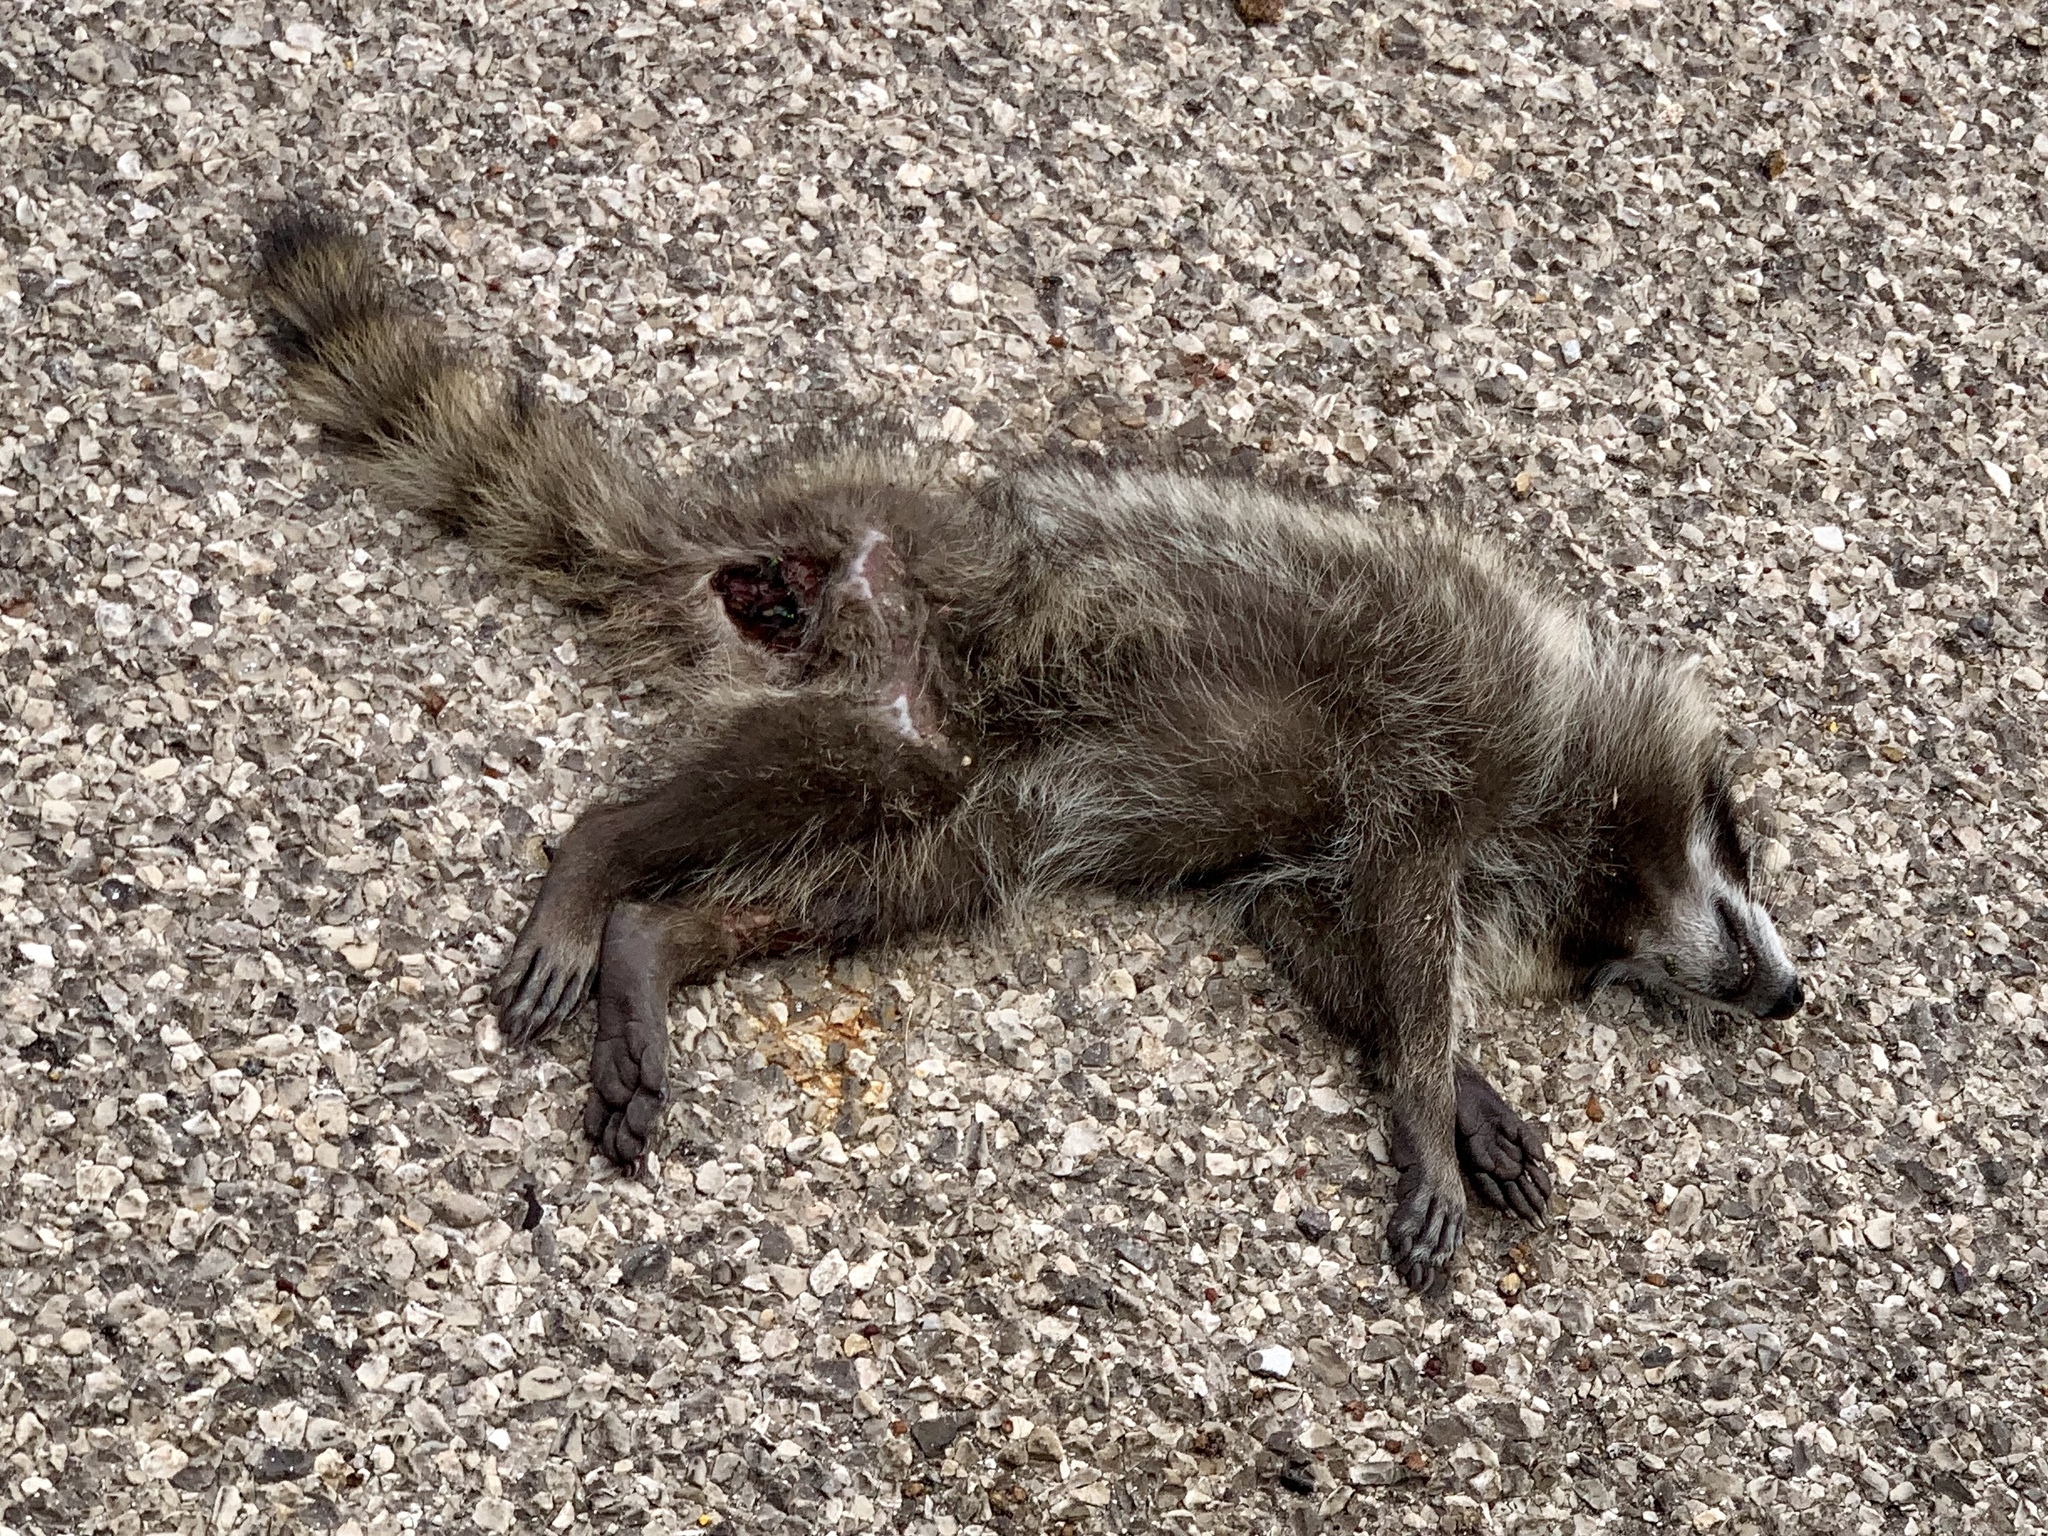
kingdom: Animalia
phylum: Chordata
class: Mammalia
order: Carnivora
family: Procyonidae
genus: Procyon
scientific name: Procyon lotor
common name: Raccoon
